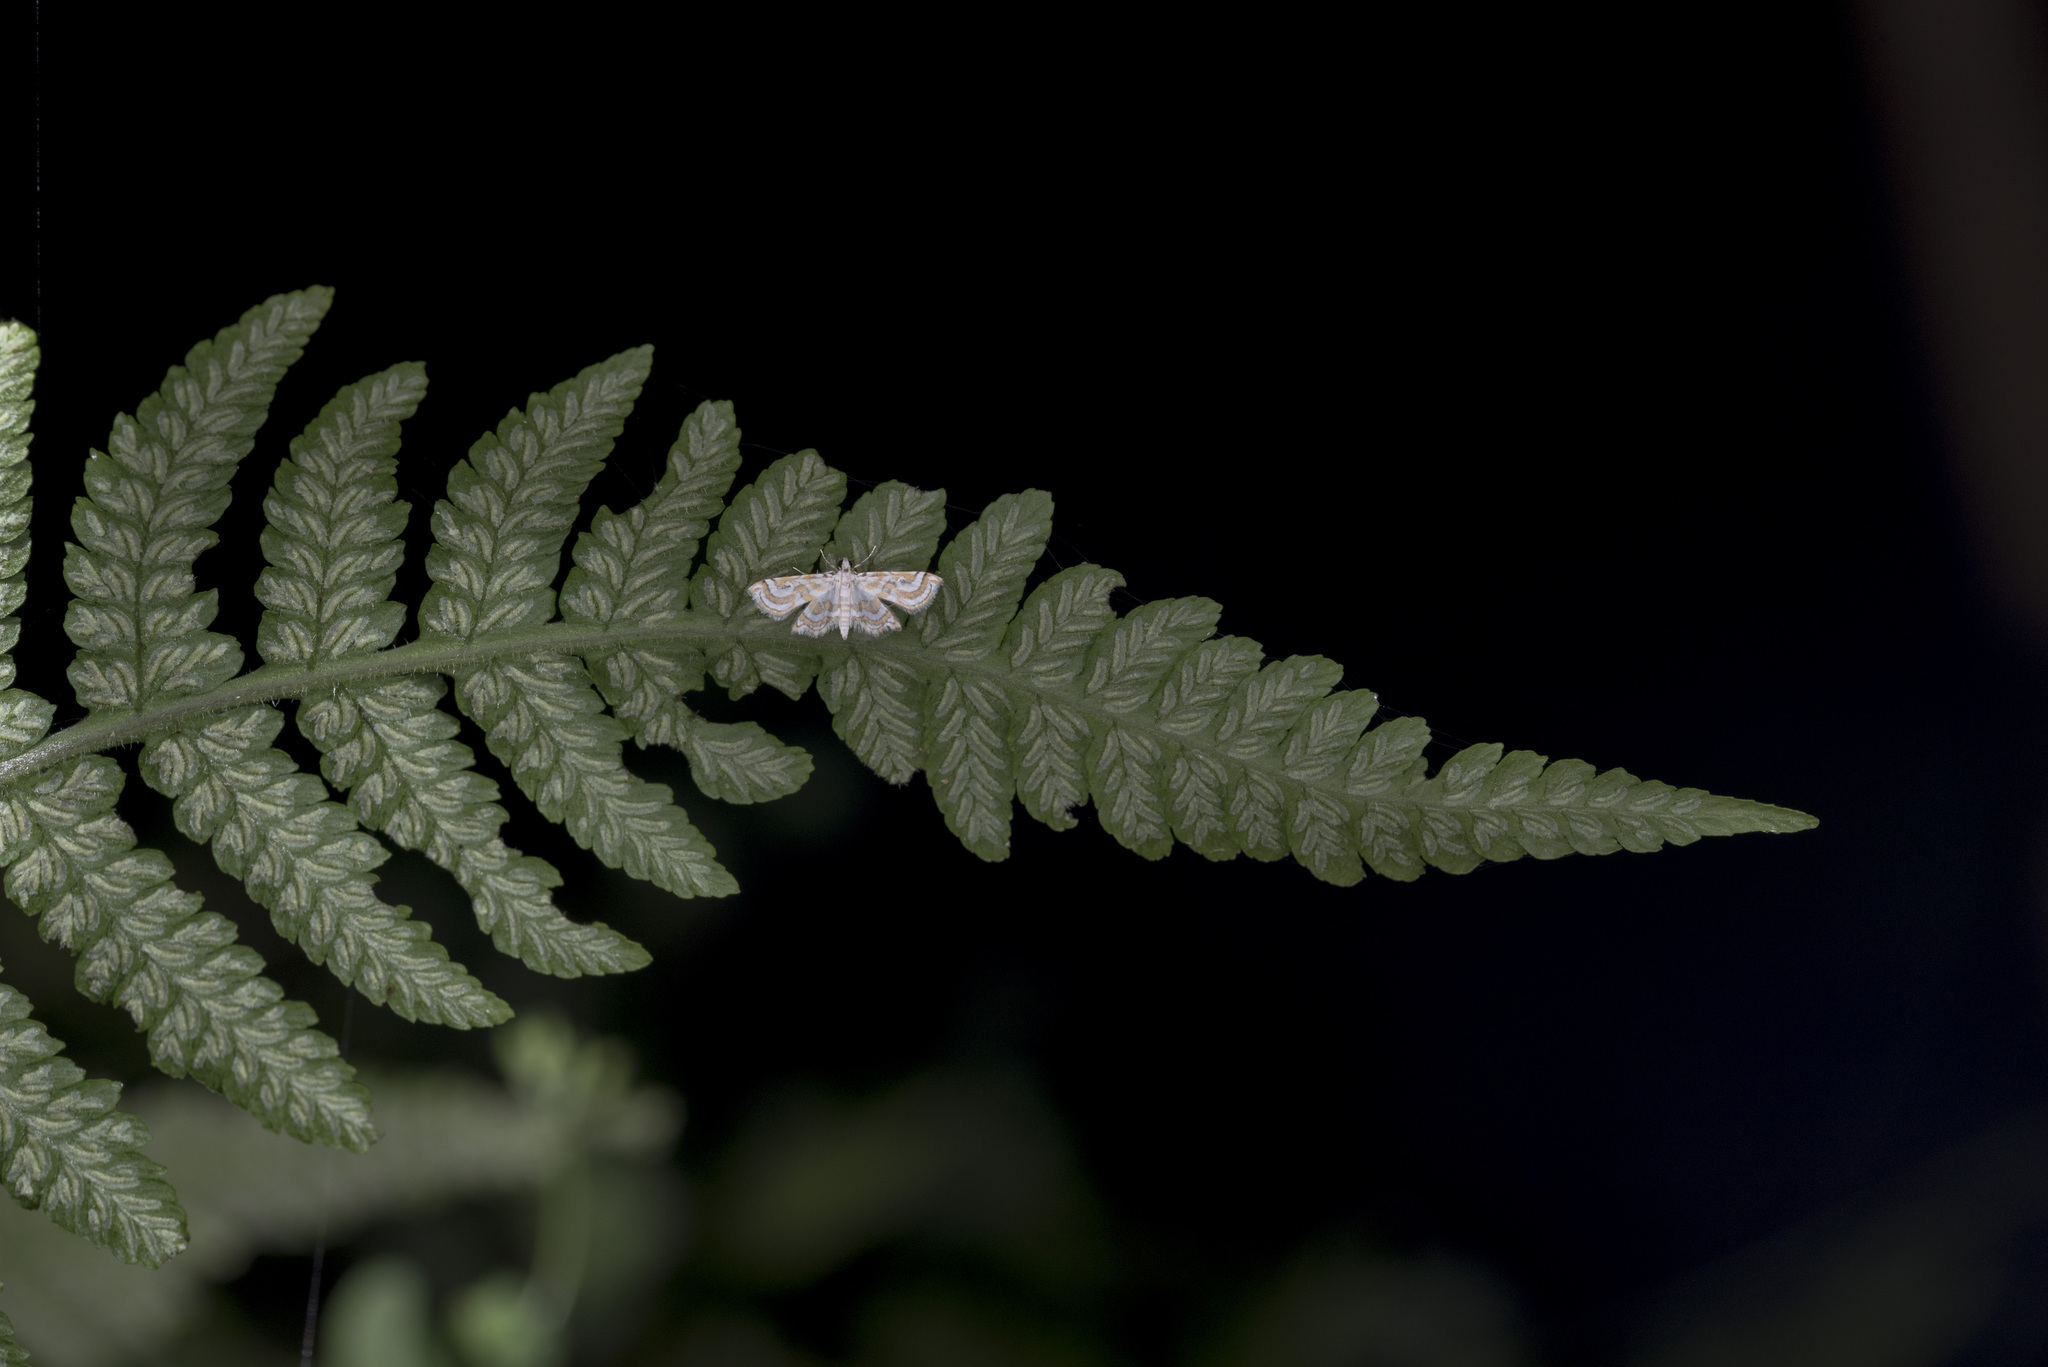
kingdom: Plantae
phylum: Tracheophyta
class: Polypodiopsida
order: Polypodiales
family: Athyriaceae
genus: Deparia
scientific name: Deparia petersenii
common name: Japanese false spleenwort
